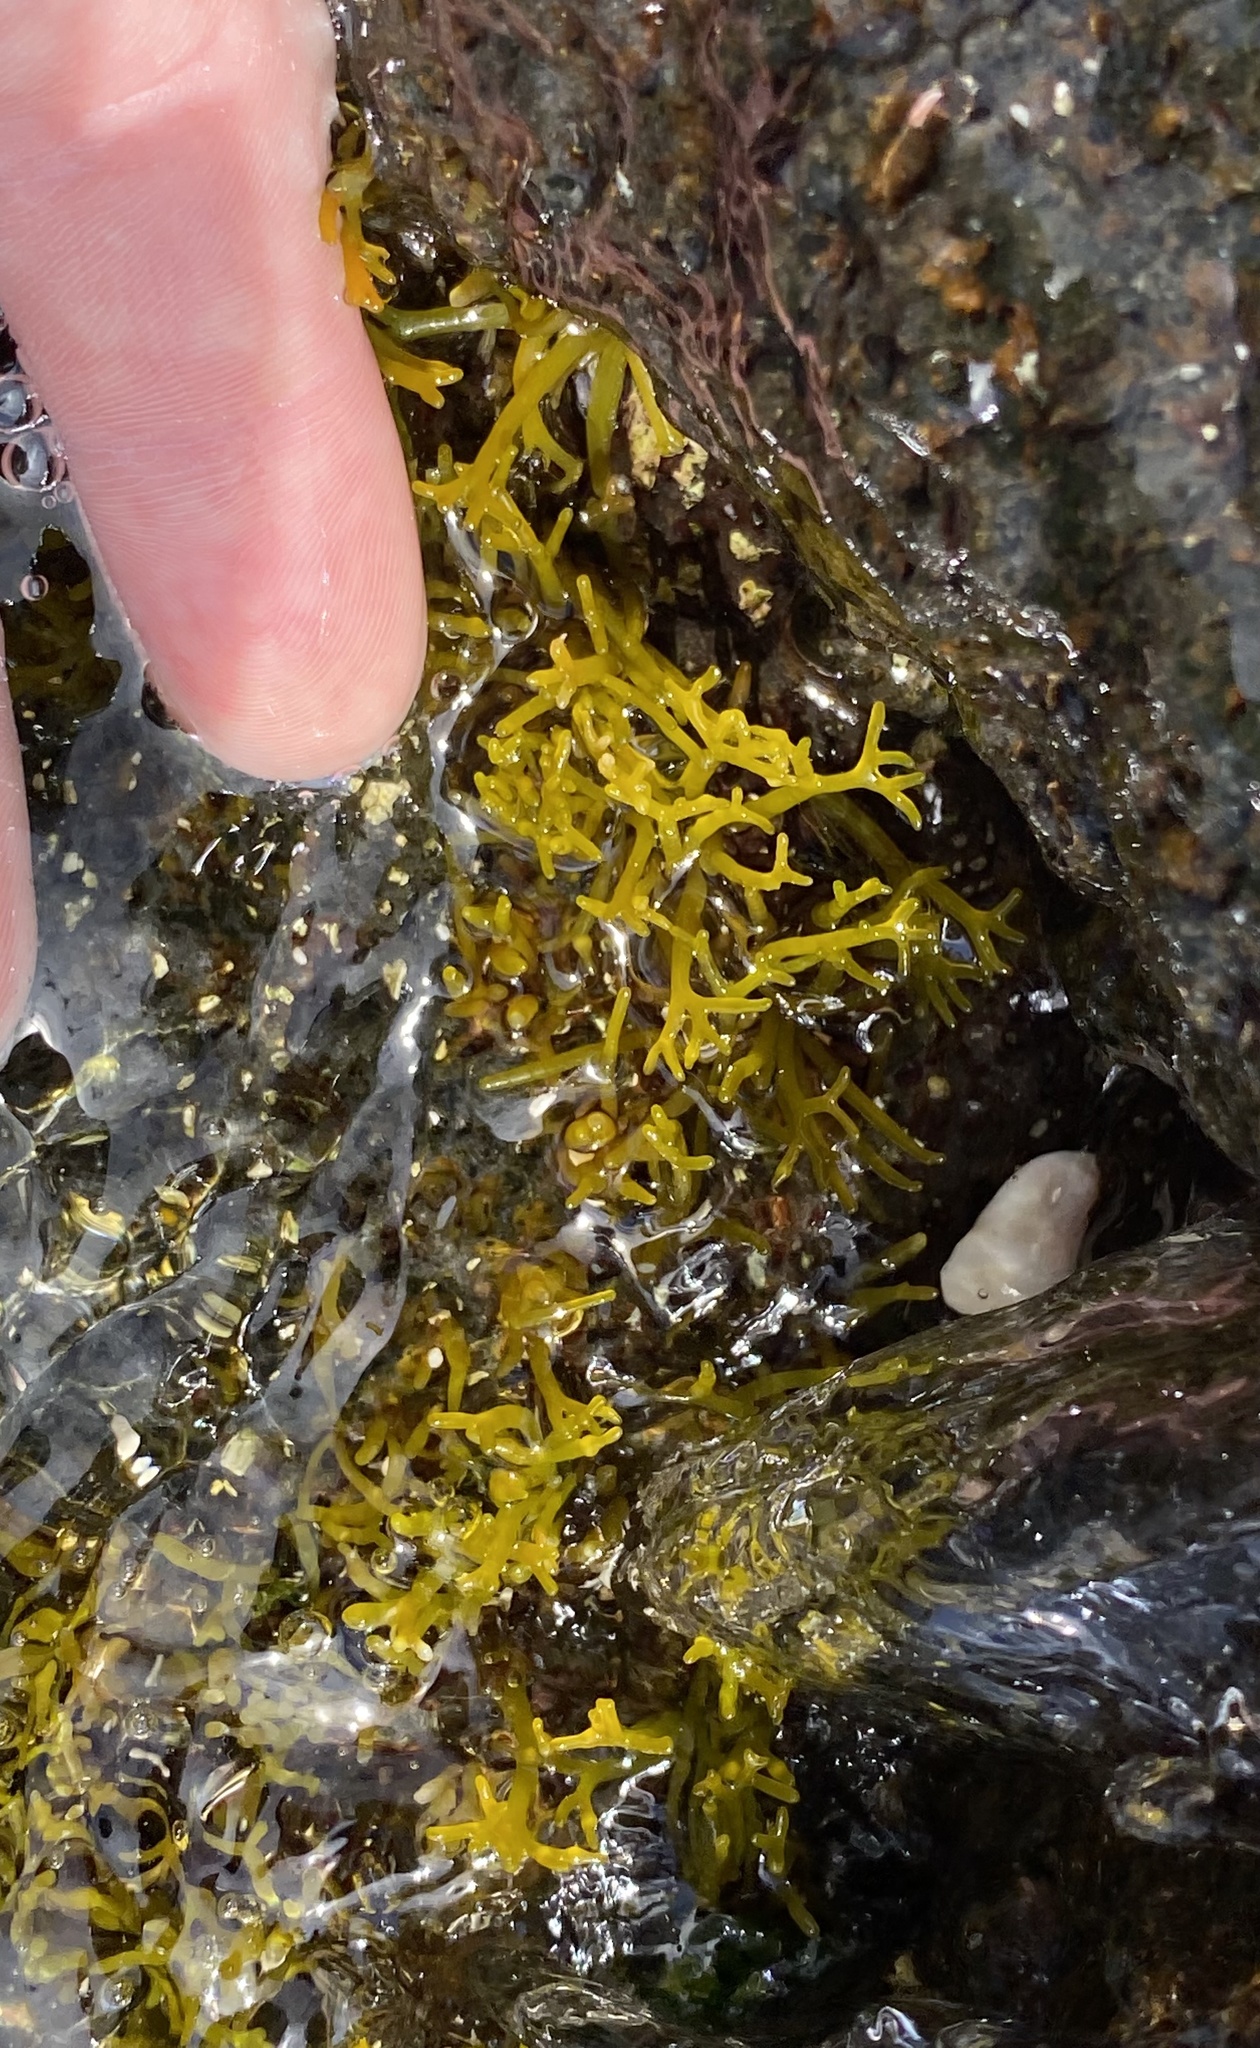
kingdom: Plantae
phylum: Rhodophyta
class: Florideophyceae
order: Gigartinales
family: Phyllophoraceae
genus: Gymnogongrus
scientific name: Gymnogongrus durvillei
